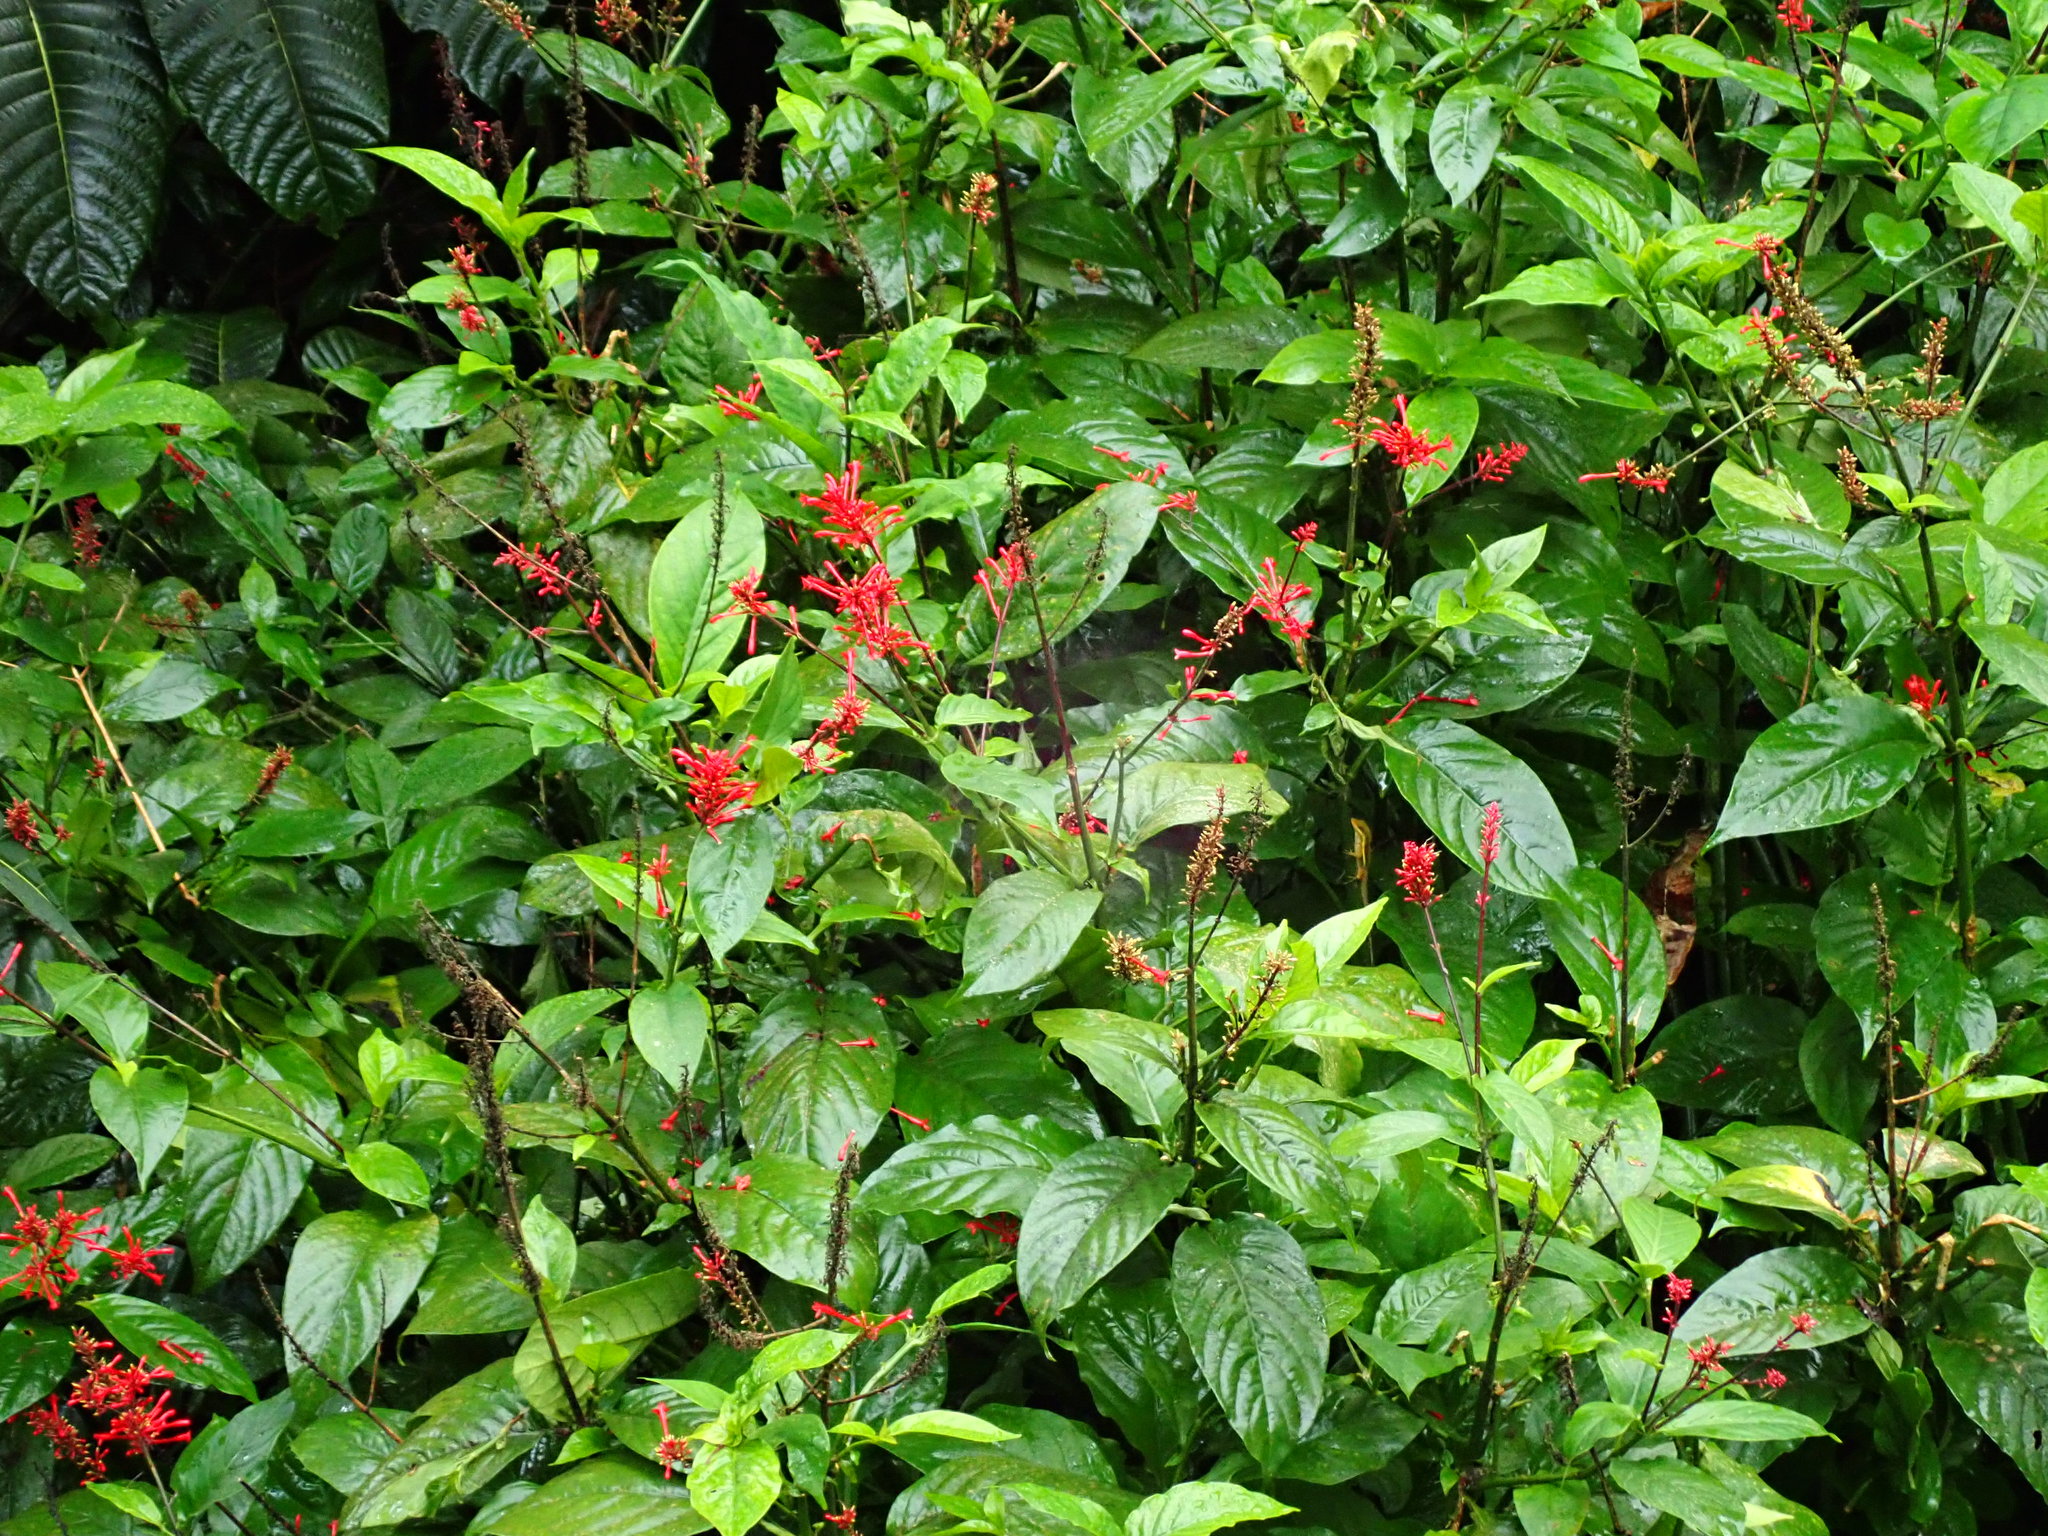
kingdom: Plantae
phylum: Tracheophyta
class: Magnoliopsida
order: Lamiales
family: Acanthaceae
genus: Odontonema
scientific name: Odontonema cuspidatum
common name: Mottled toothedthread
